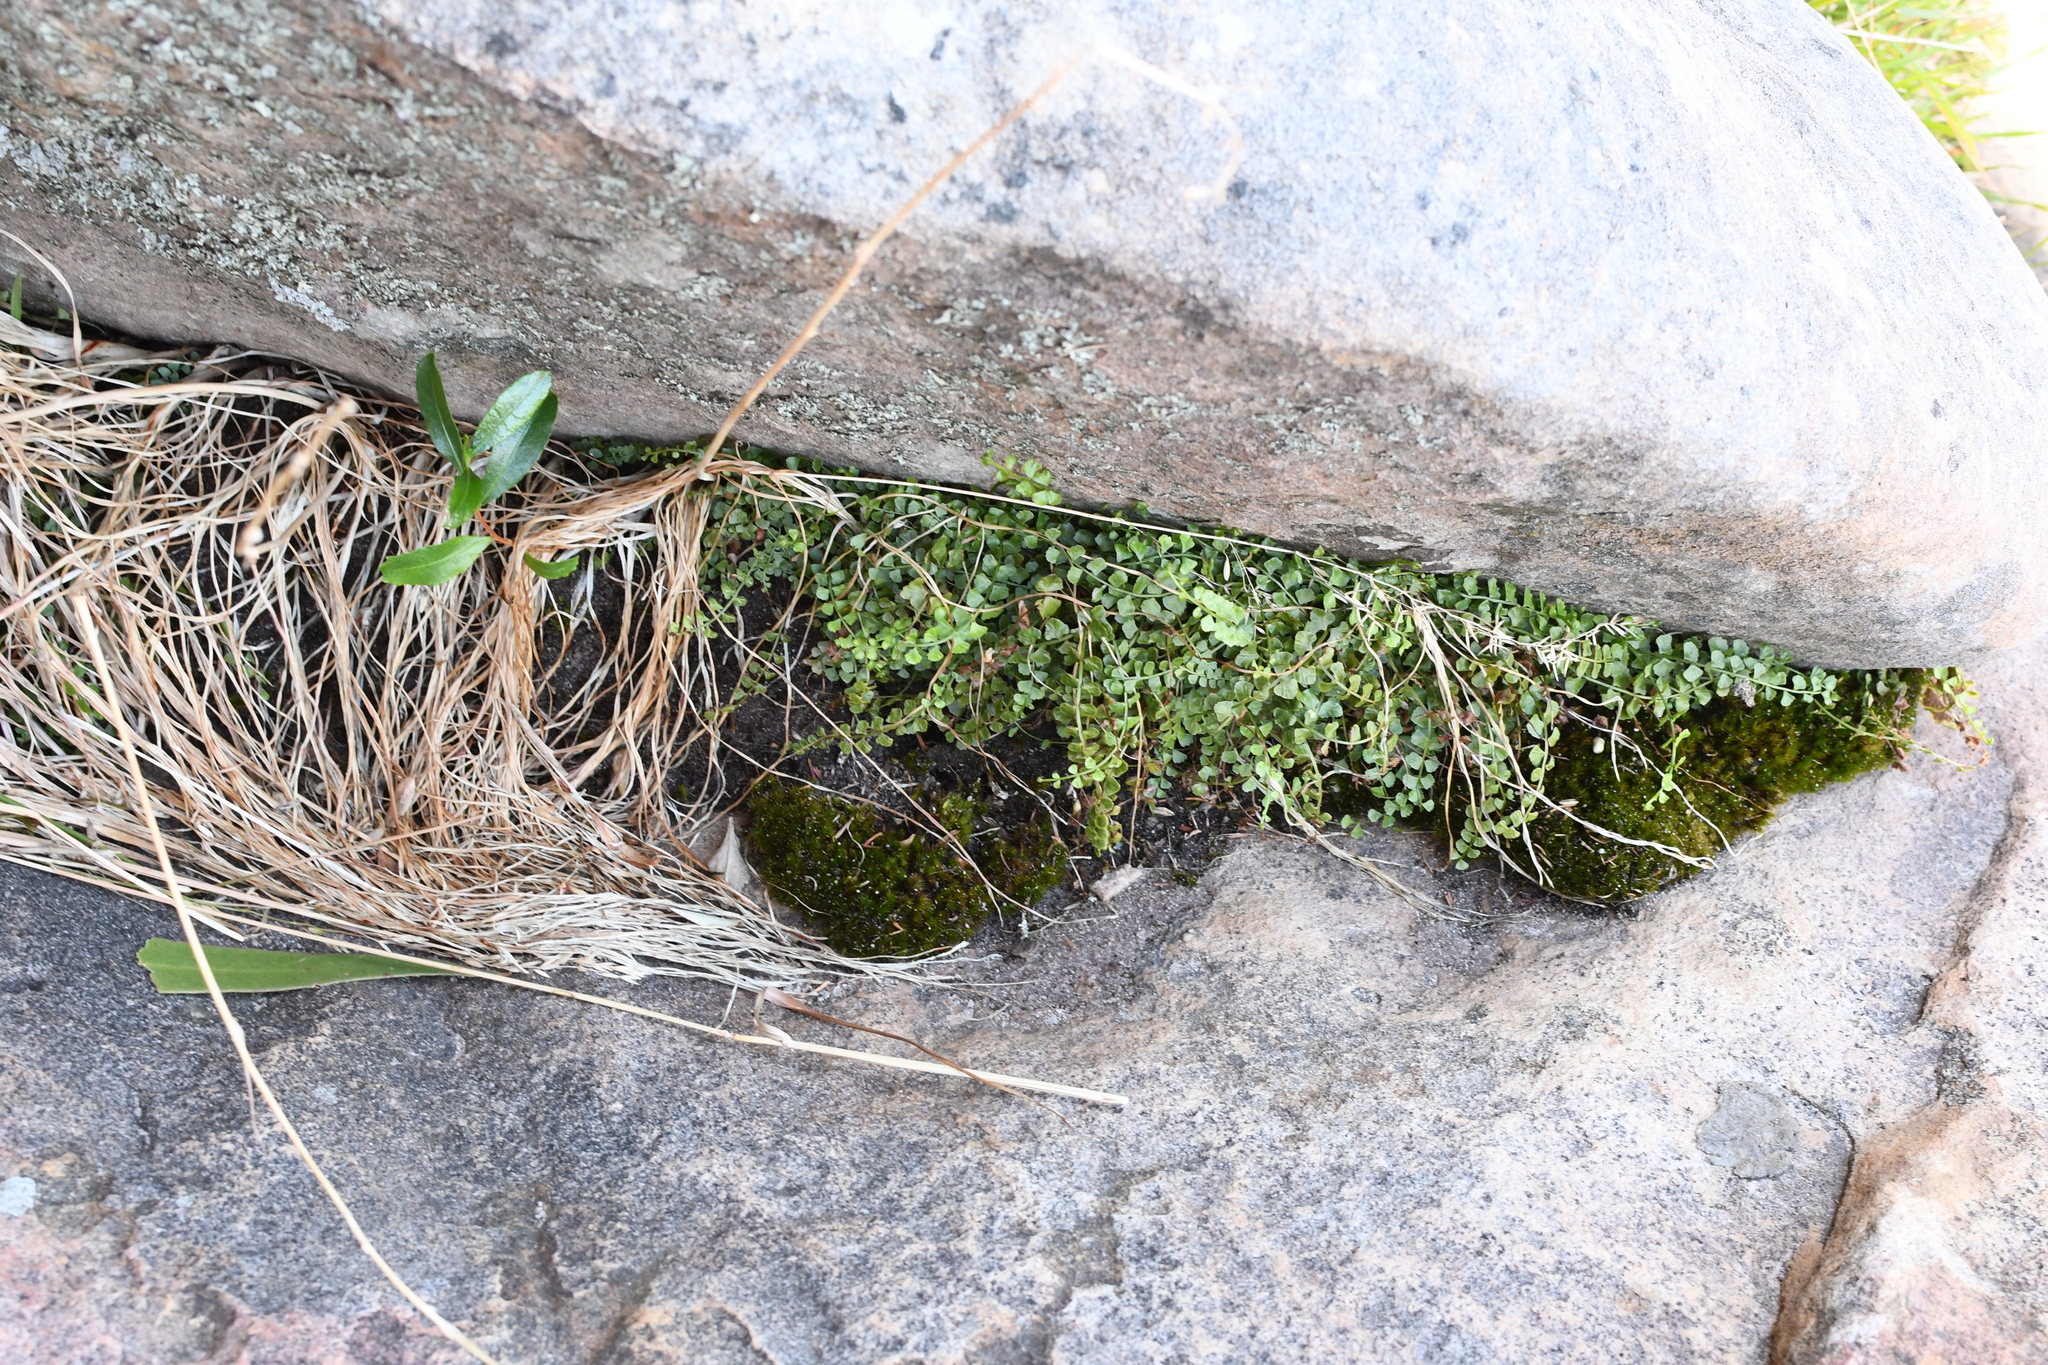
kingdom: Plantae
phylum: Tracheophyta
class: Polypodiopsida
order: Polypodiales
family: Aspleniaceae
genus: Asplenium
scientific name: Asplenium flabellifolium
